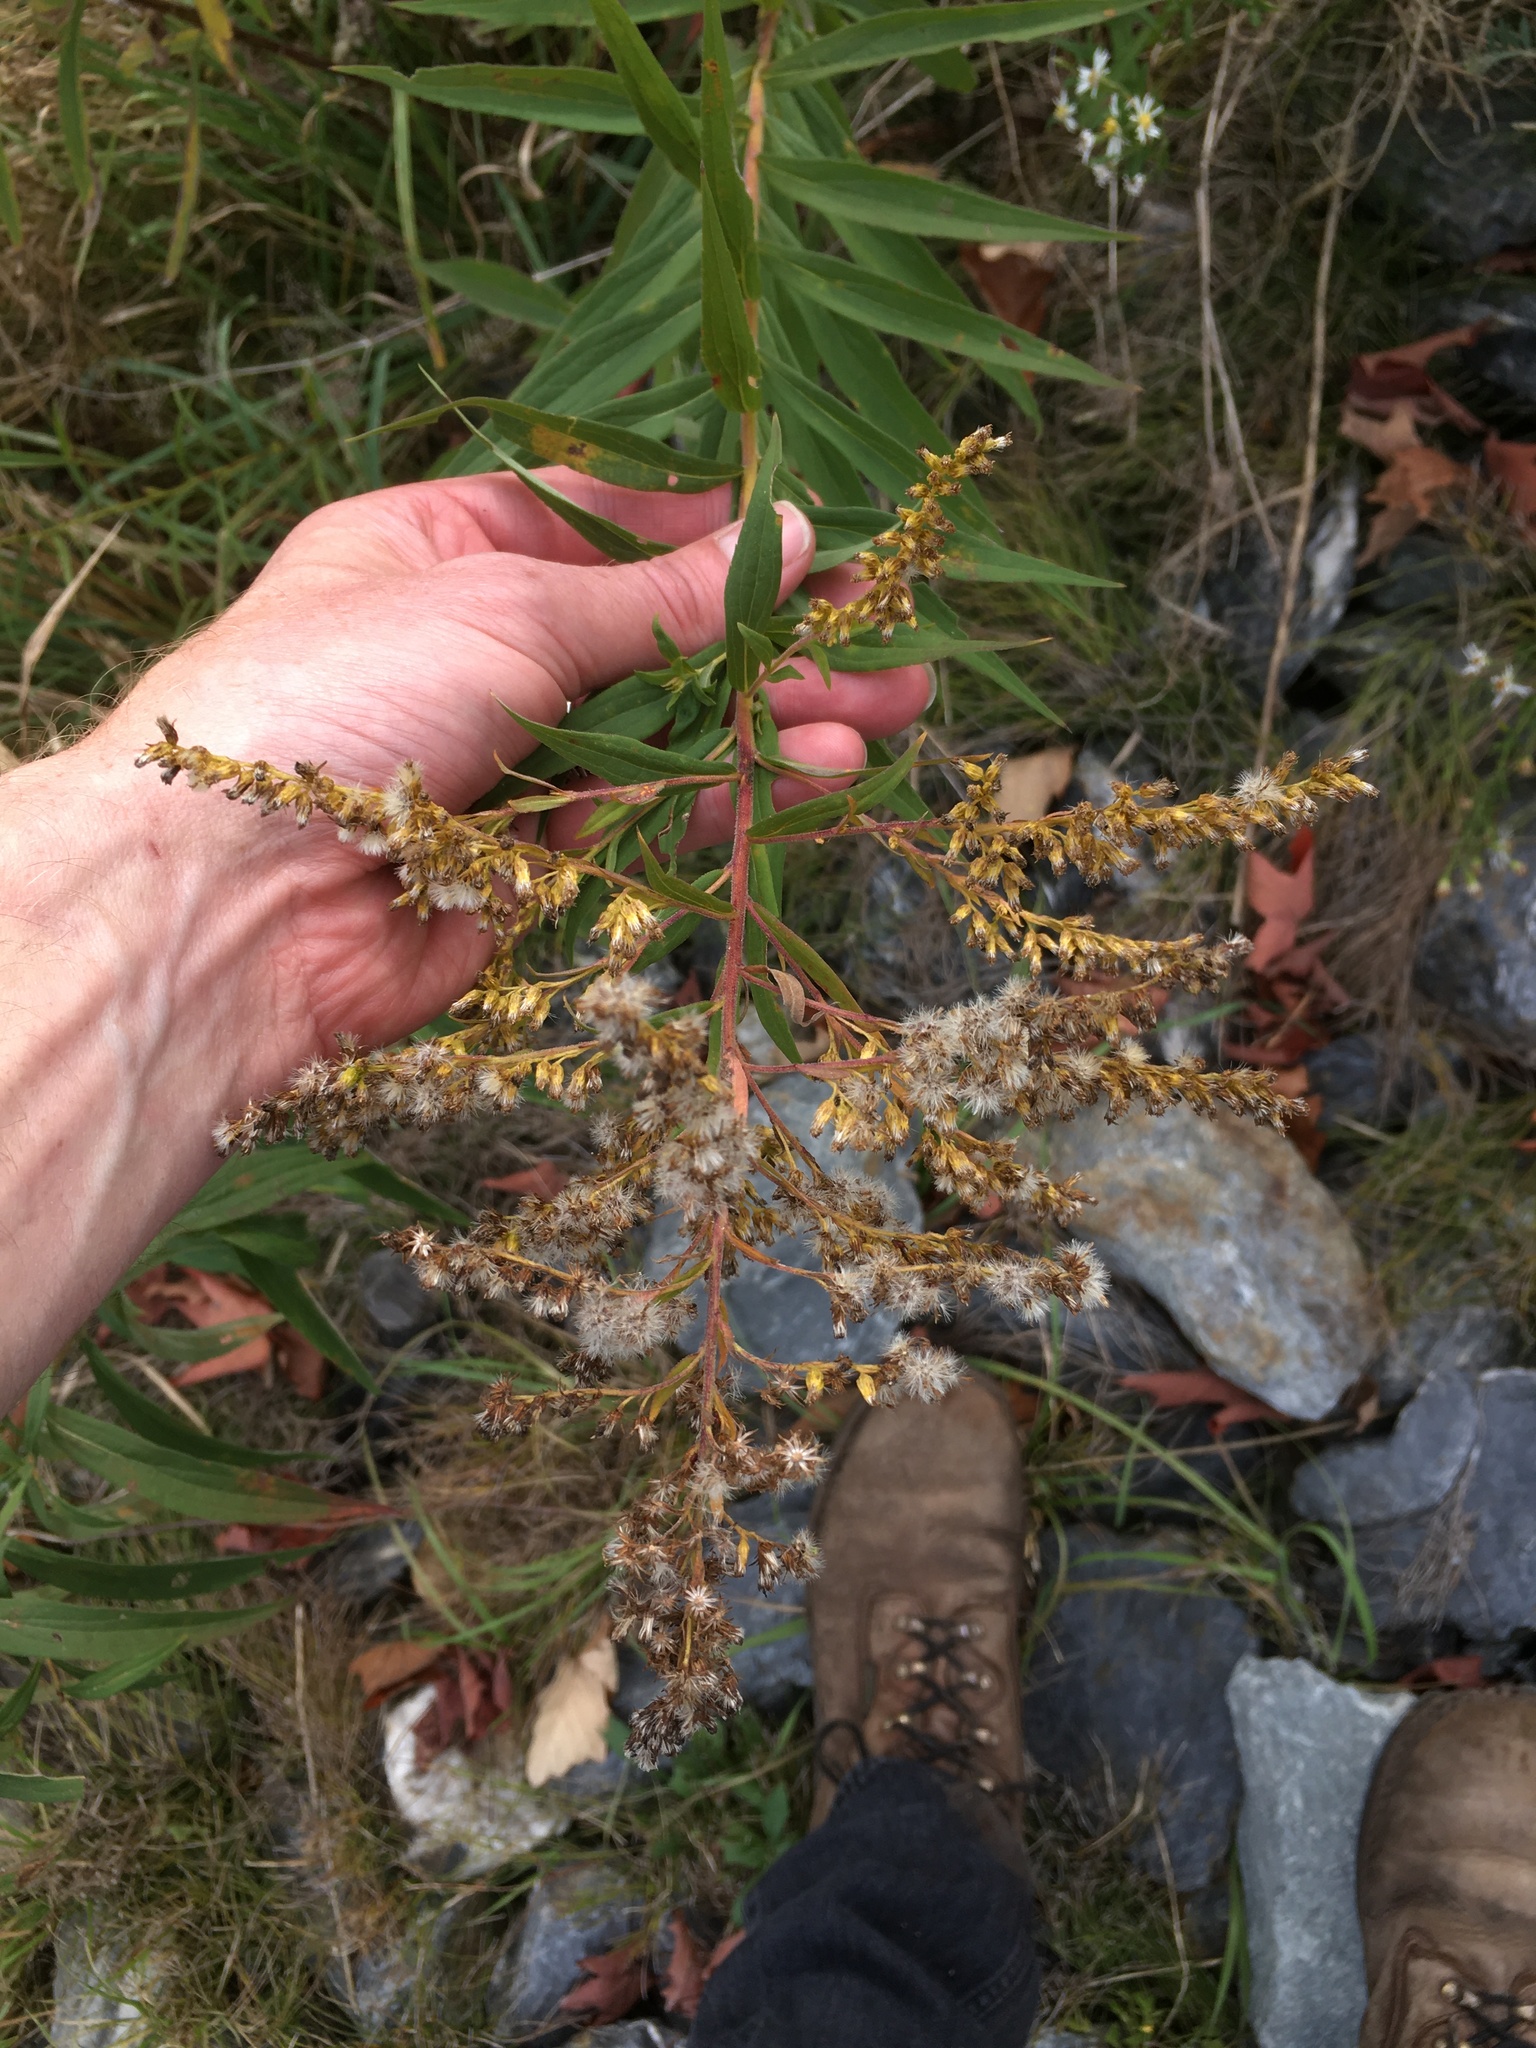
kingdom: Plantae
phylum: Tracheophyta
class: Magnoliopsida
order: Asterales
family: Asteraceae
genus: Solidago
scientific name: Solidago altissima
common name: Late goldenrod
